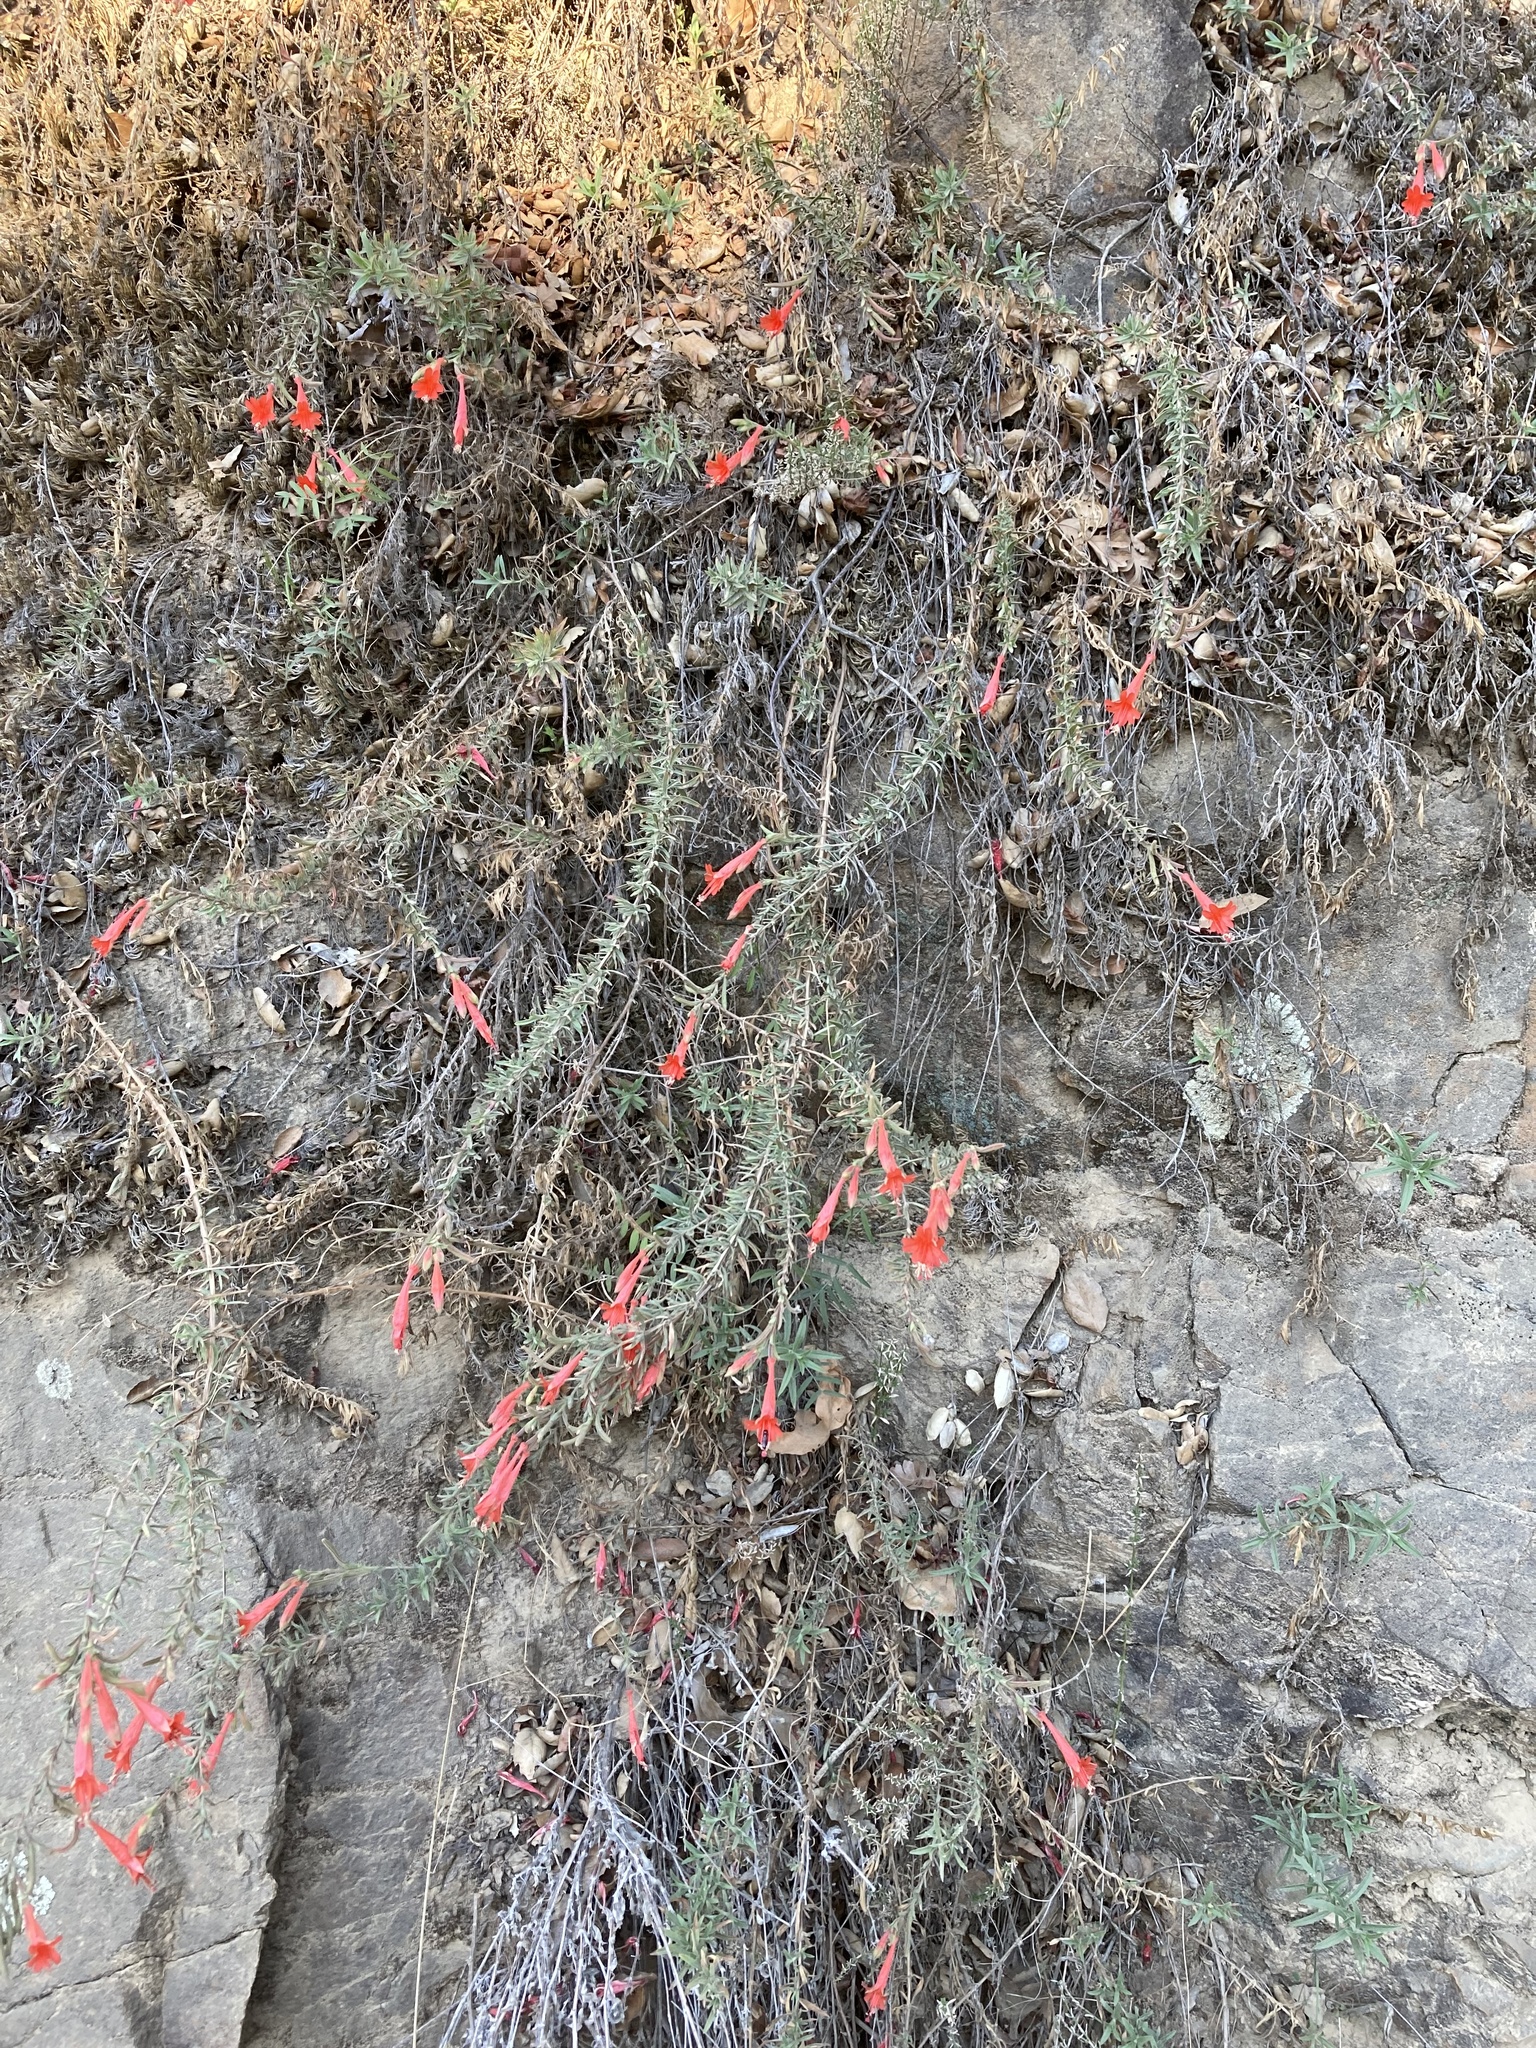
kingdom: Plantae
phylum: Tracheophyta
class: Magnoliopsida
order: Myrtales
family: Onagraceae
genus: Epilobium
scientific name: Epilobium canum
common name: California-fuchsia
